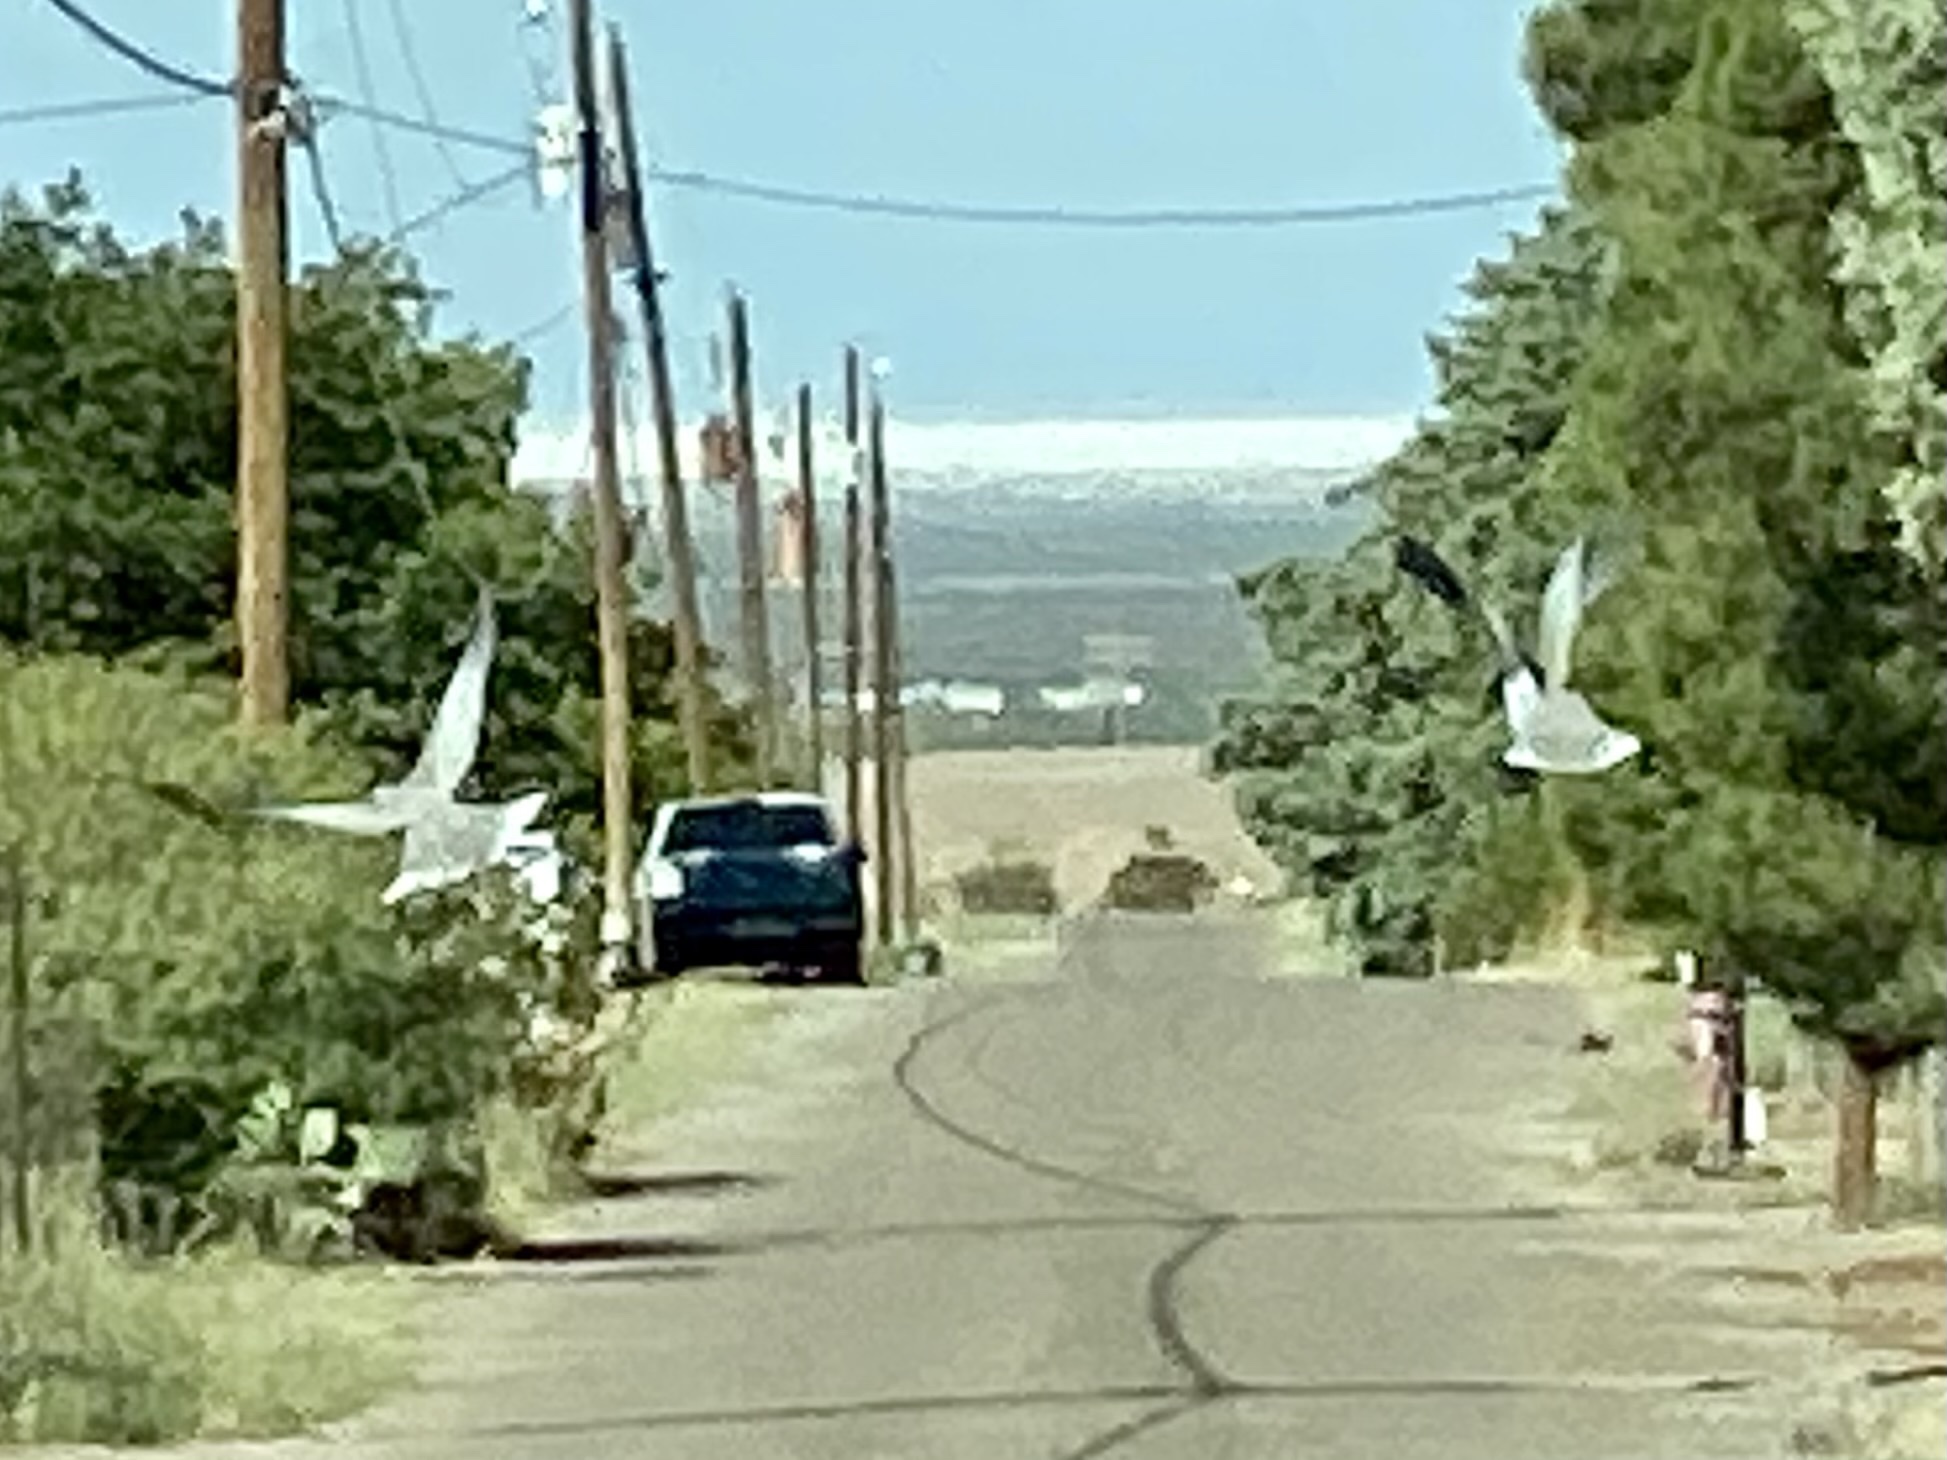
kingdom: Animalia
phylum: Chordata
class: Aves
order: Columbiformes
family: Columbidae
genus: Streptopelia
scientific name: Streptopelia decaocto
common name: Eurasian collared dove
